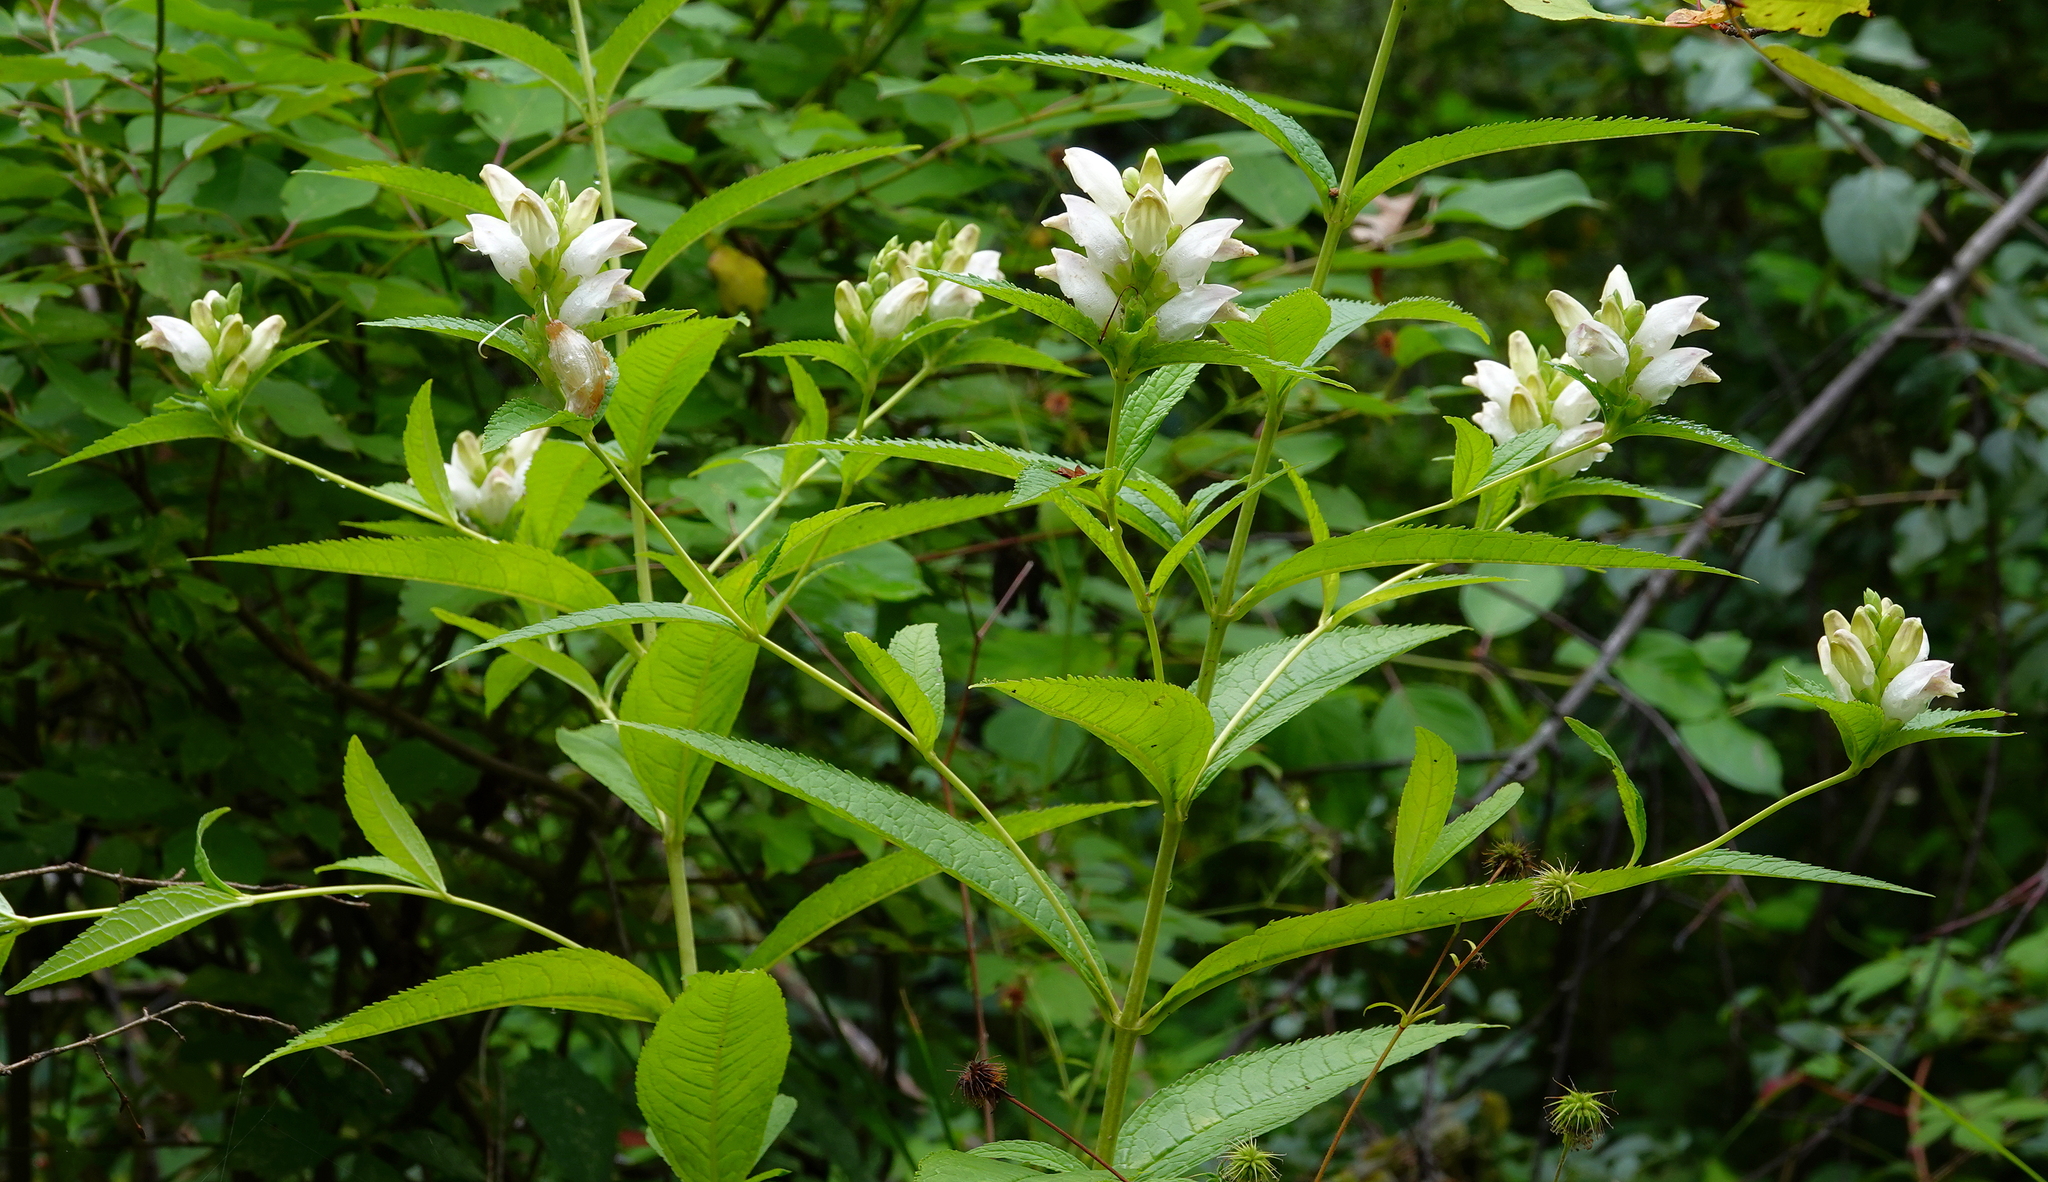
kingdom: Plantae
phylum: Tracheophyta
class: Magnoliopsida
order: Lamiales
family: Plantaginaceae
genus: Chelone
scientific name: Chelone glabra
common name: Snakehead
